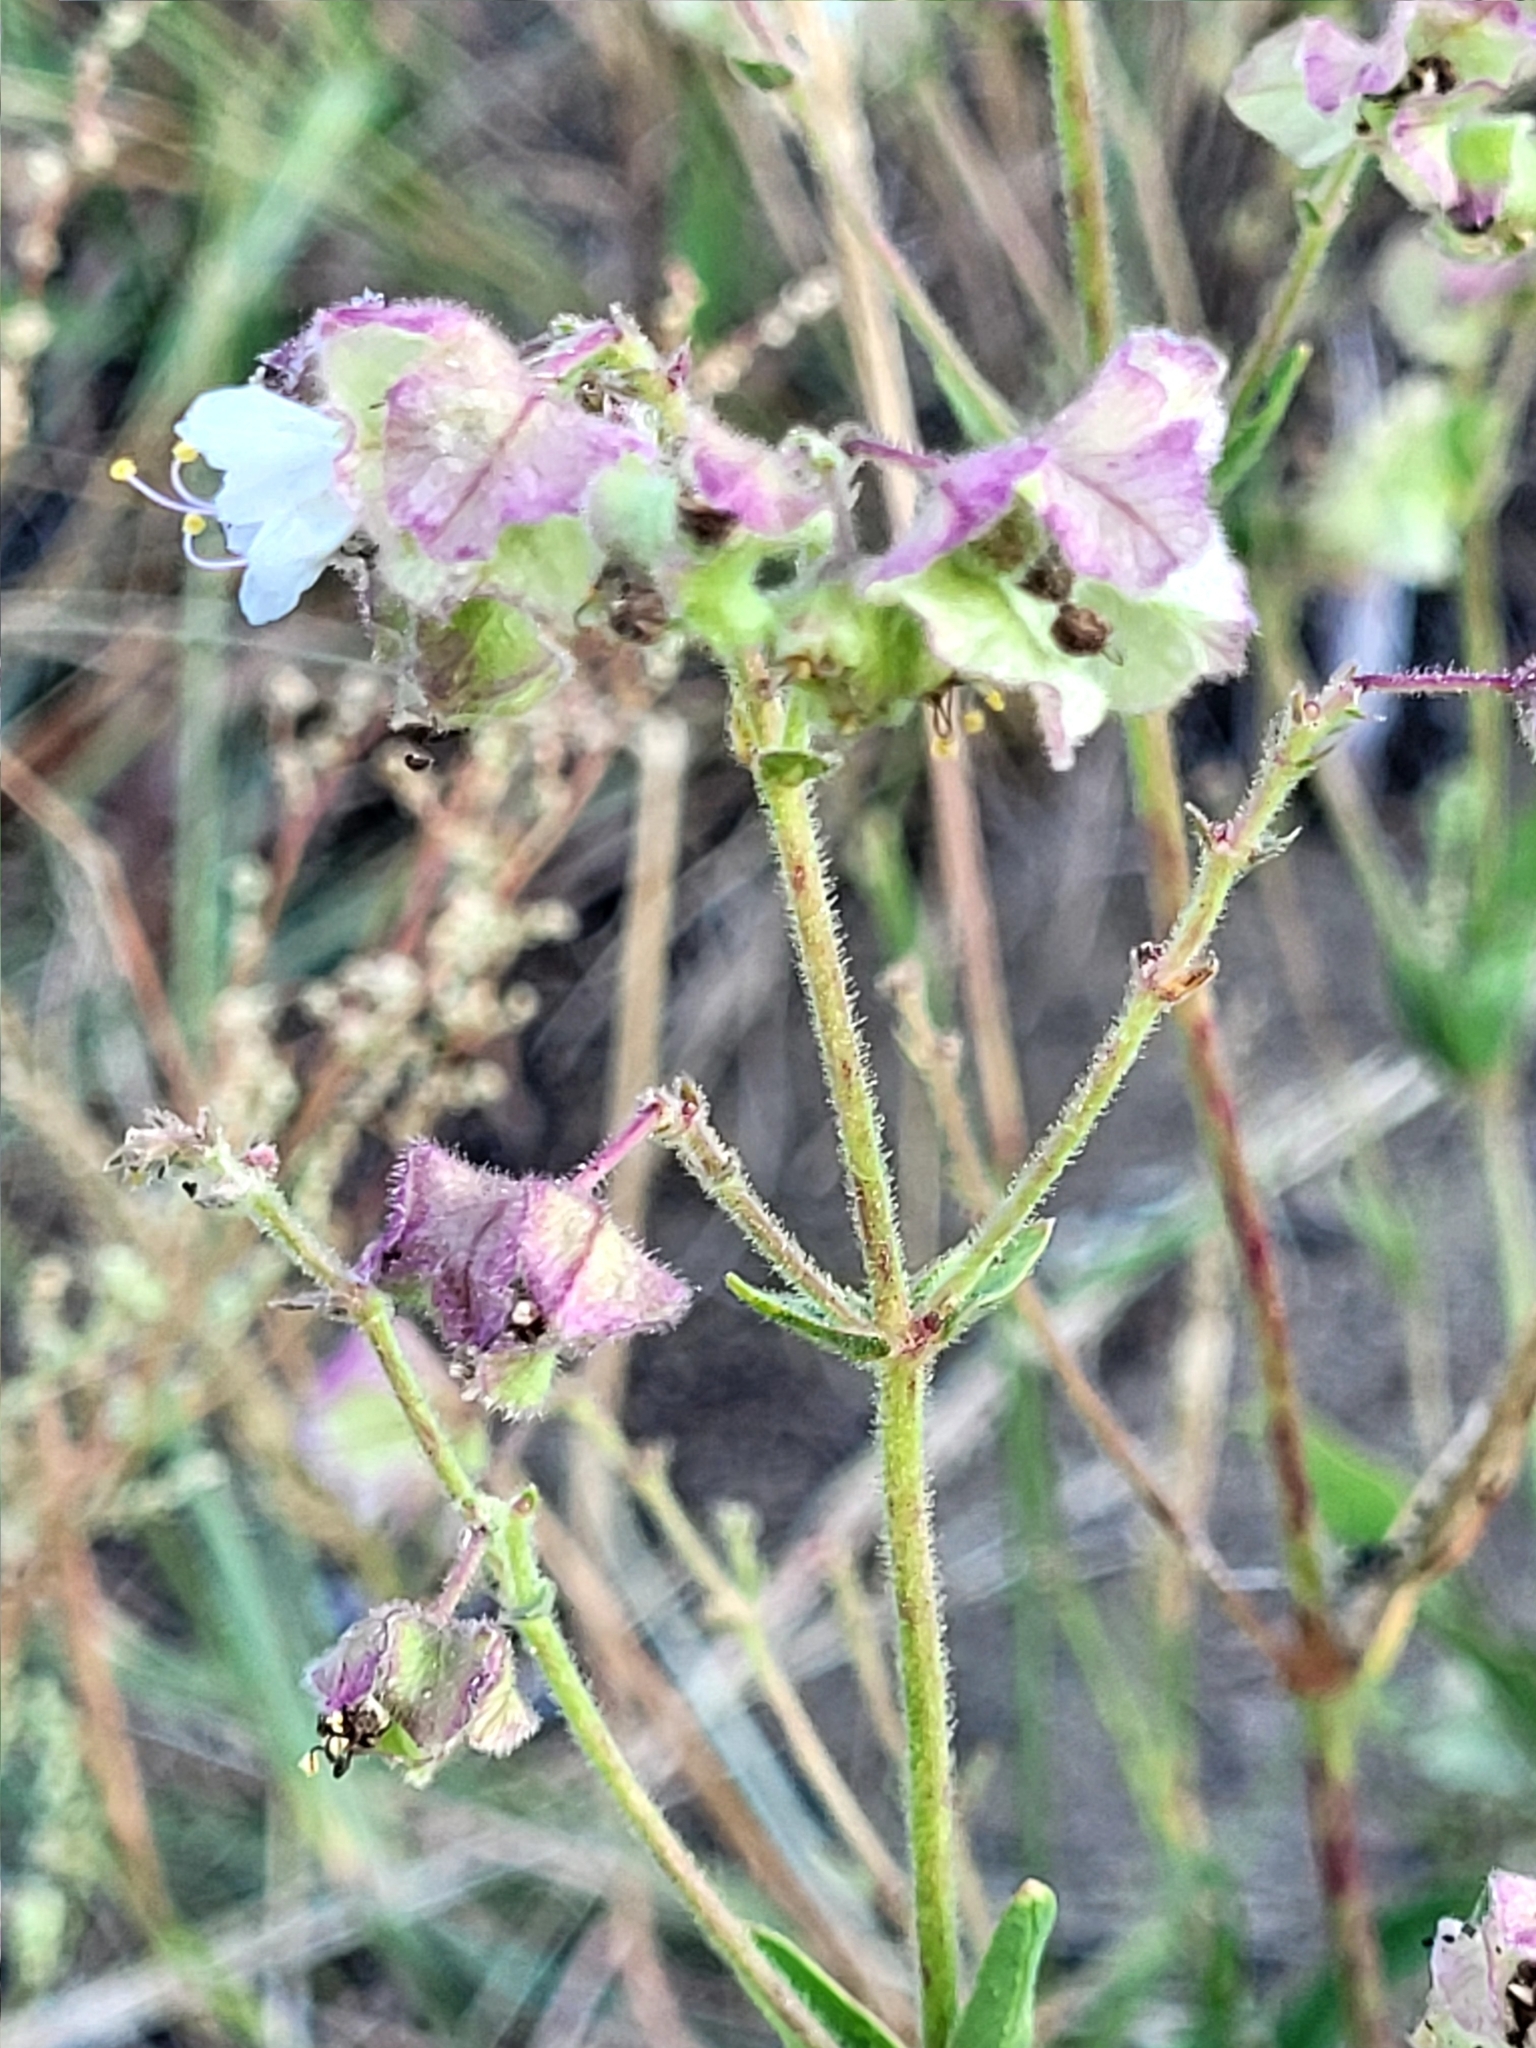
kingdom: Plantae
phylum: Tracheophyta
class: Magnoliopsida
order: Caryophyllales
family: Nyctaginaceae
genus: Mirabilis
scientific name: Mirabilis albida
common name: Hairy four-o'clock
